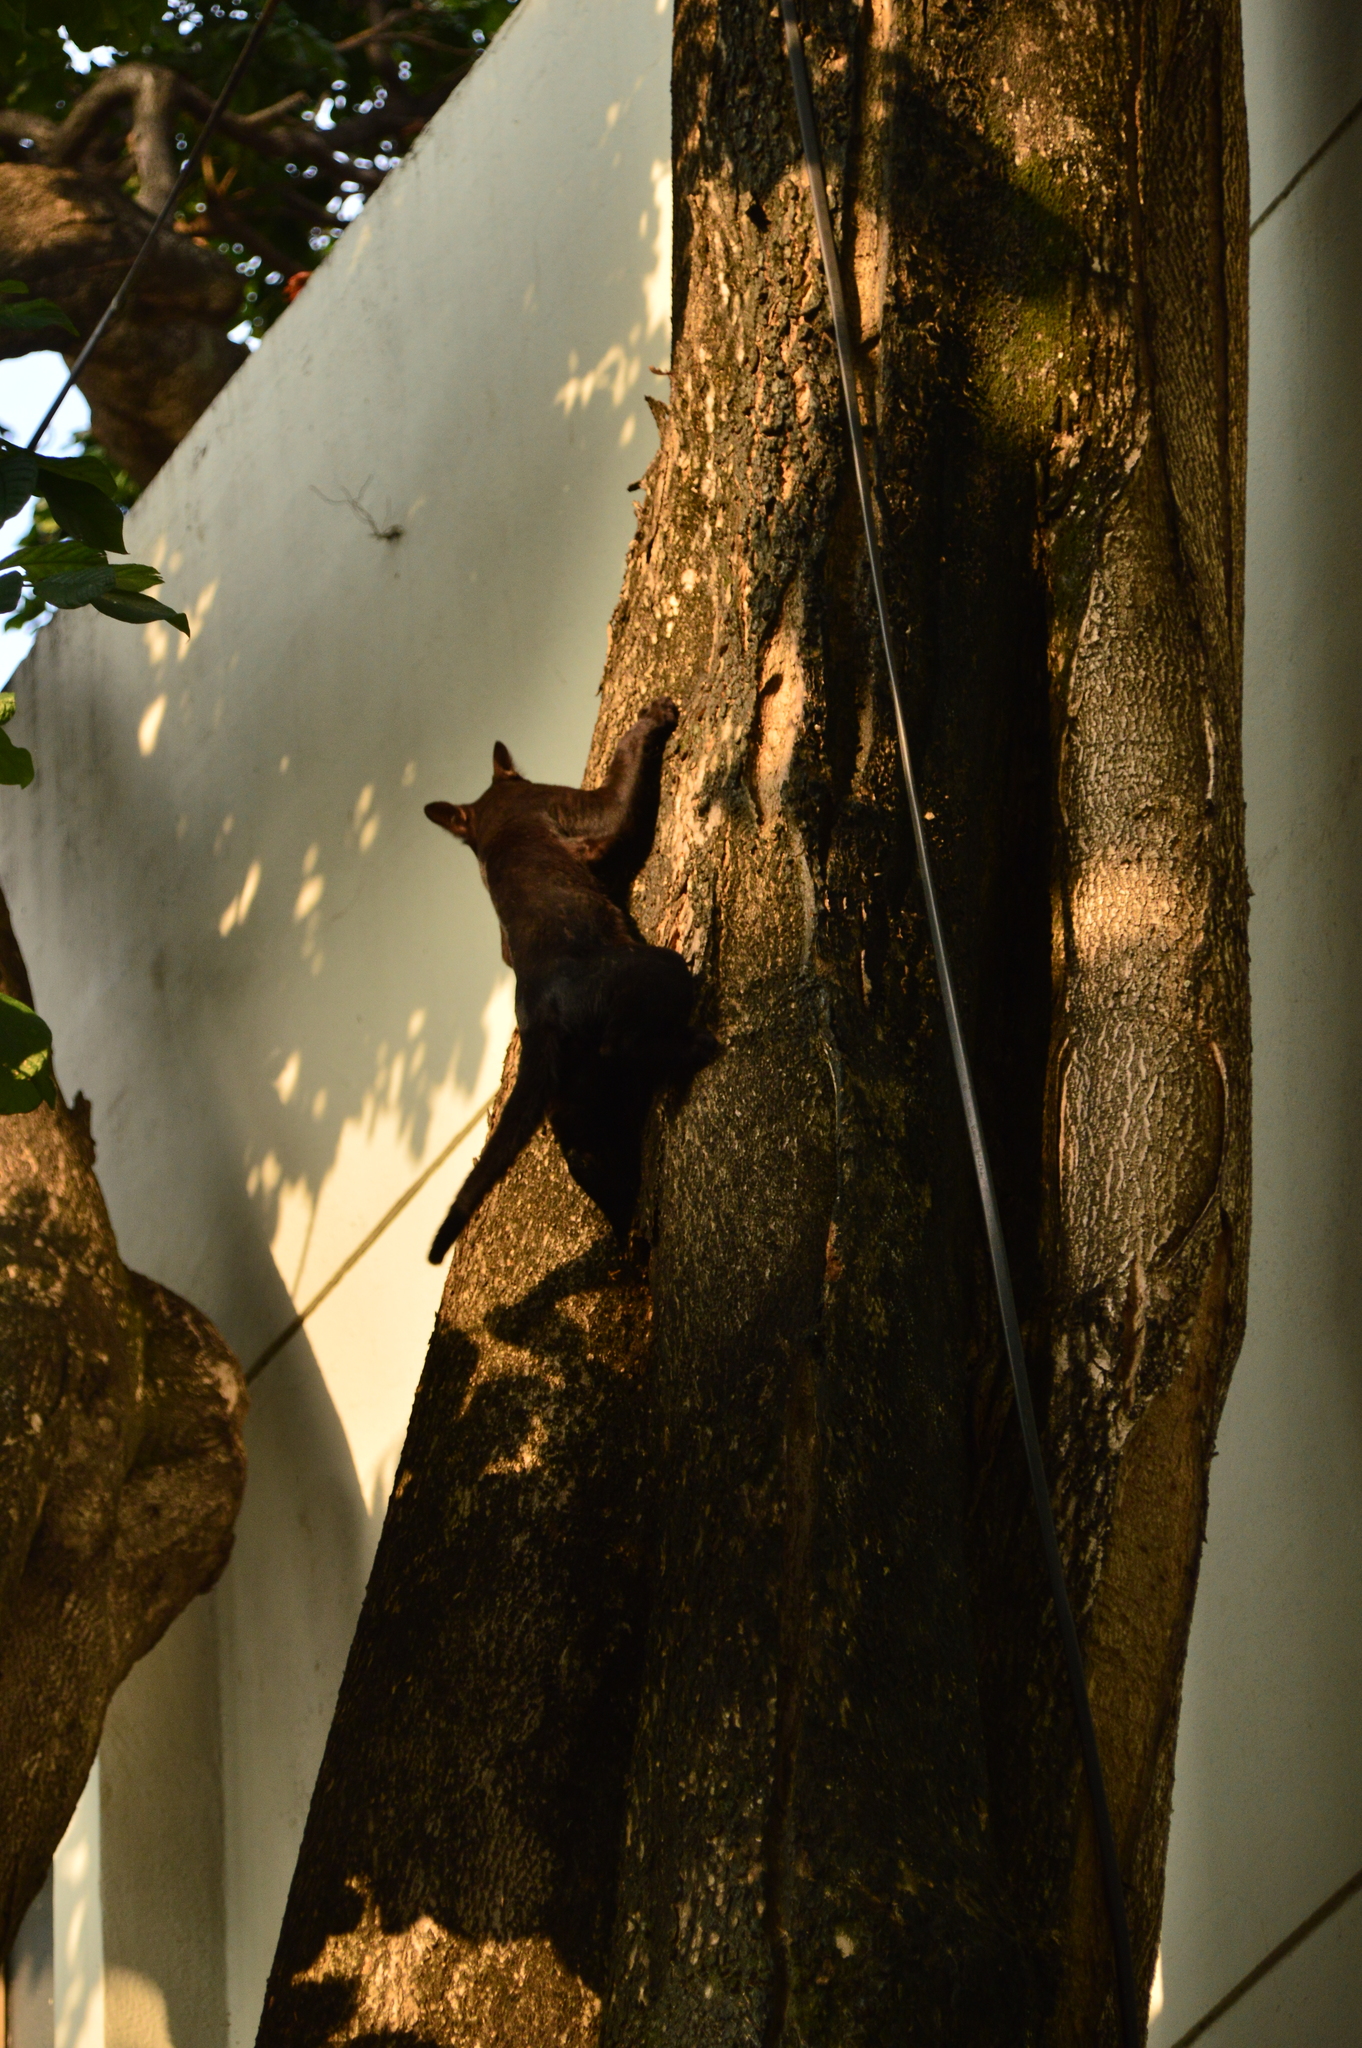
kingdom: Animalia
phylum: Chordata
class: Mammalia
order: Carnivora
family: Felidae
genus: Felis
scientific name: Felis catus
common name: Domestic cat
